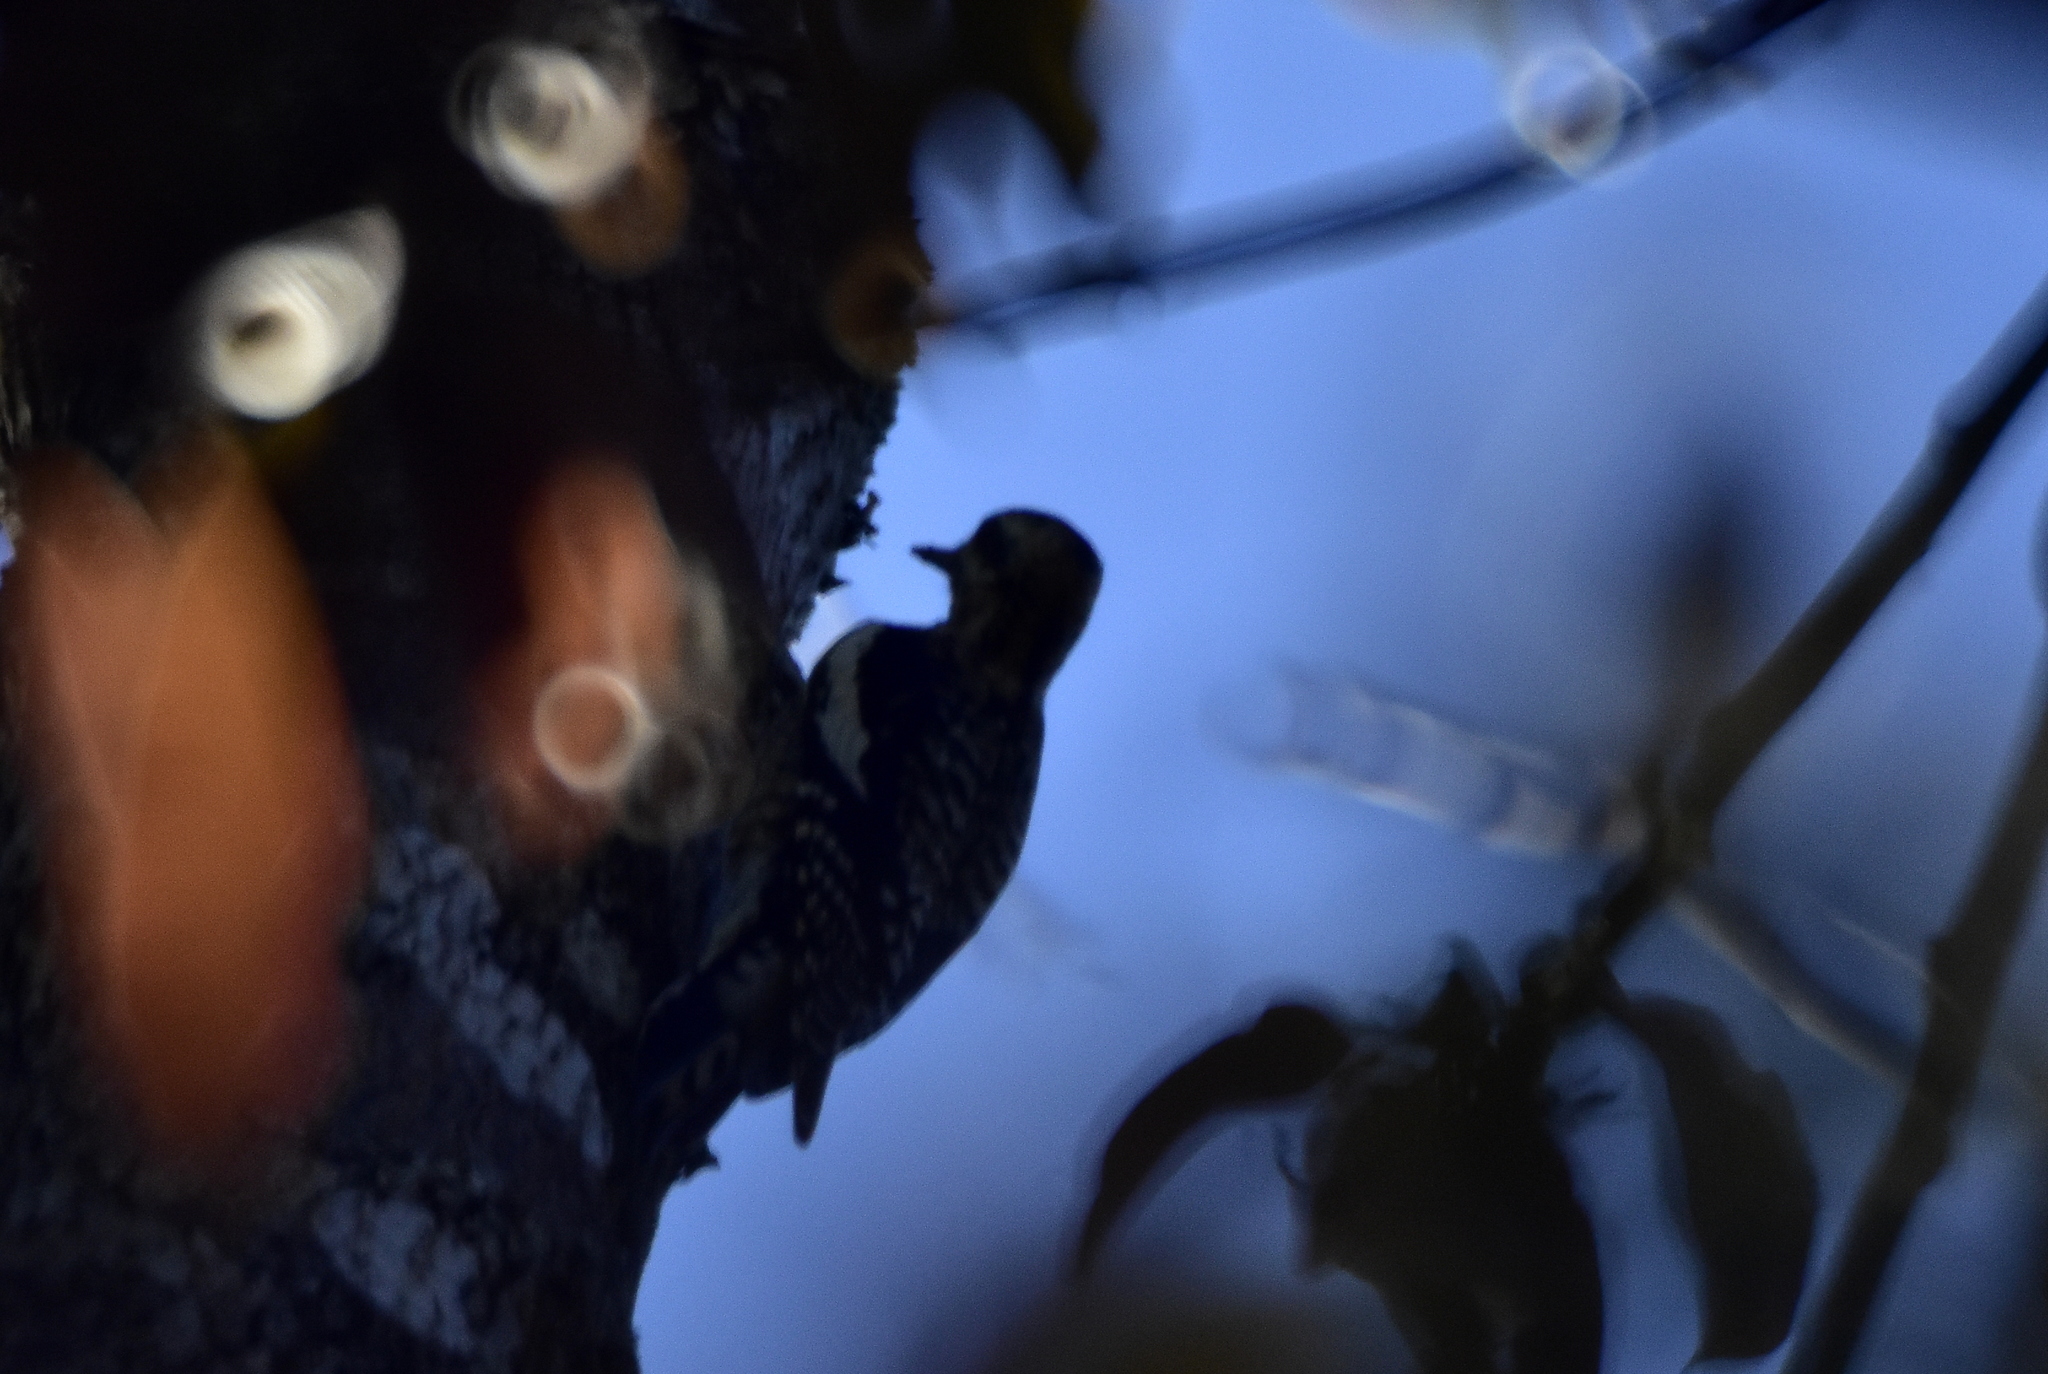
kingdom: Animalia
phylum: Chordata
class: Aves
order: Piciformes
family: Picidae
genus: Sphyrapicus
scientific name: Sphyrapicus varius
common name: Yellow-bellied sapsucker
